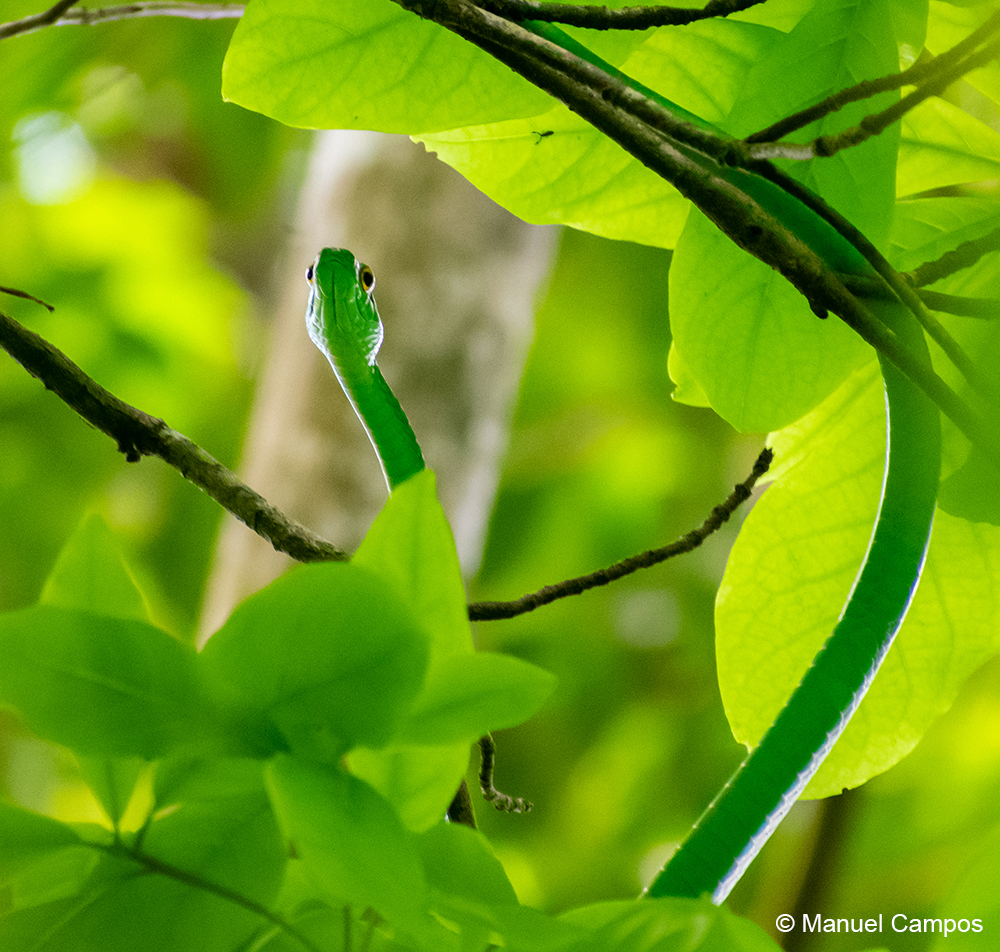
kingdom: Animalia
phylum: Chordata
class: Squamata
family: Colubridae
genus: Leptophis
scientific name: Leptophis ahaetulla
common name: Parrot snake
